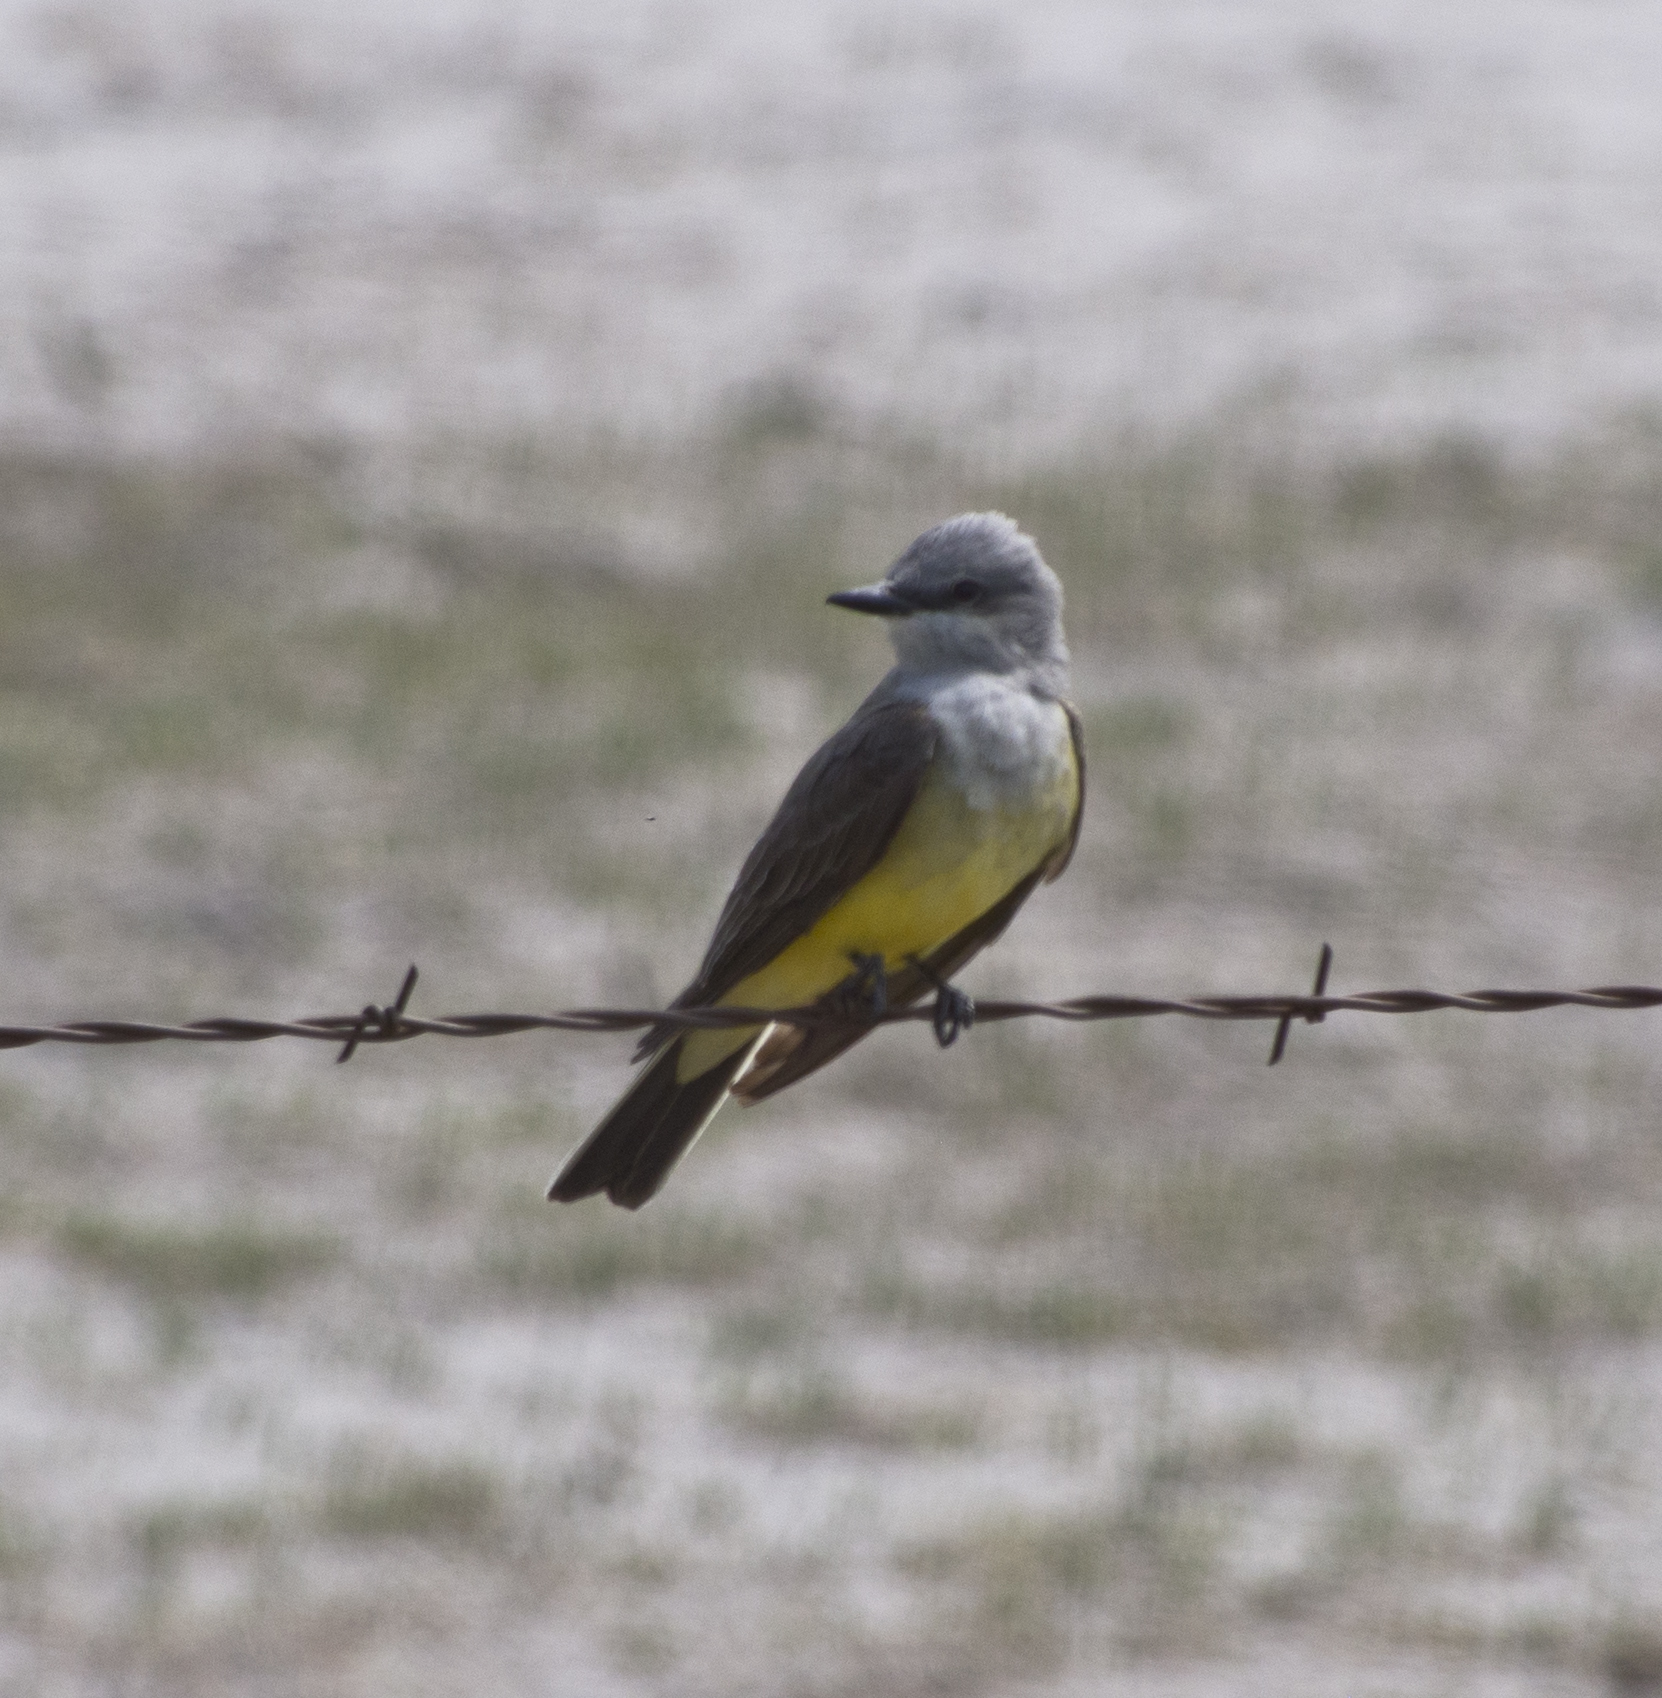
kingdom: Animalia
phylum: Chordata
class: Aves
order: Passeriformes
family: Tyrannidae
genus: Tyrannus
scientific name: Tyrannus verticalis
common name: Western kingbird
